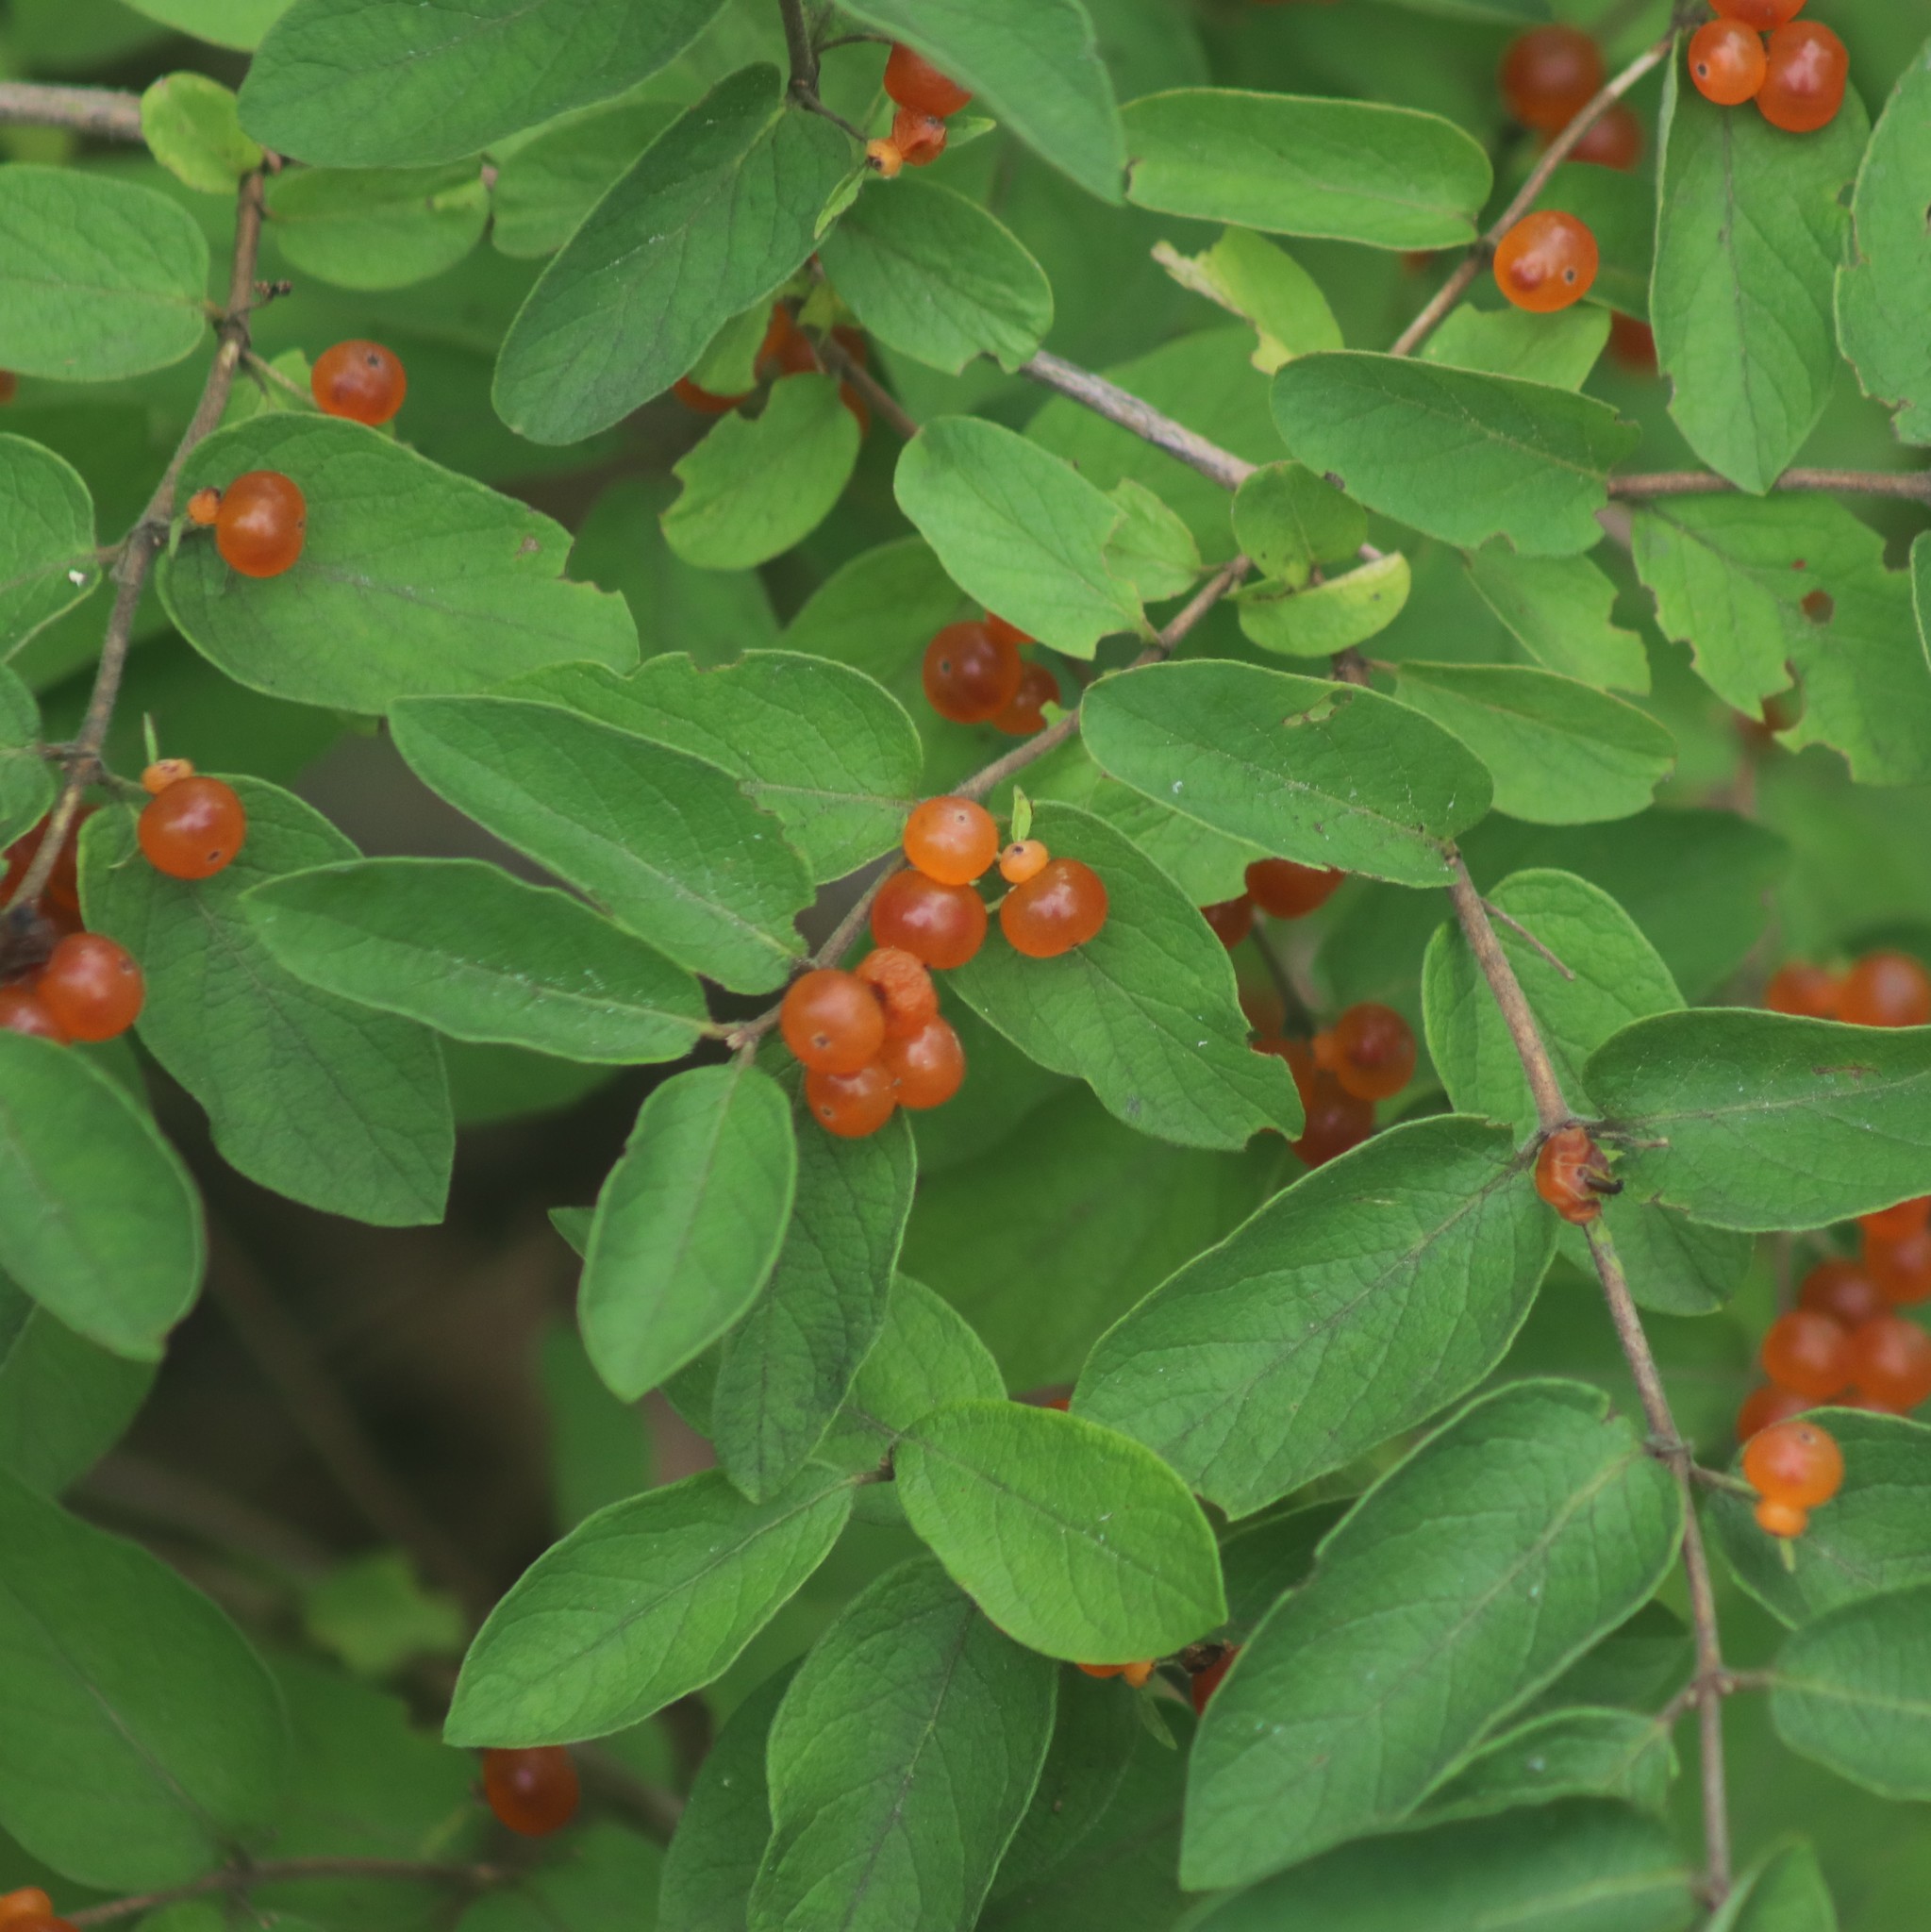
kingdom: Plantae
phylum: Tracheophyta
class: Magnoliopsida
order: Dipsacales
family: Caprifoliaceae
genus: Lonicera
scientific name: Lonicera
